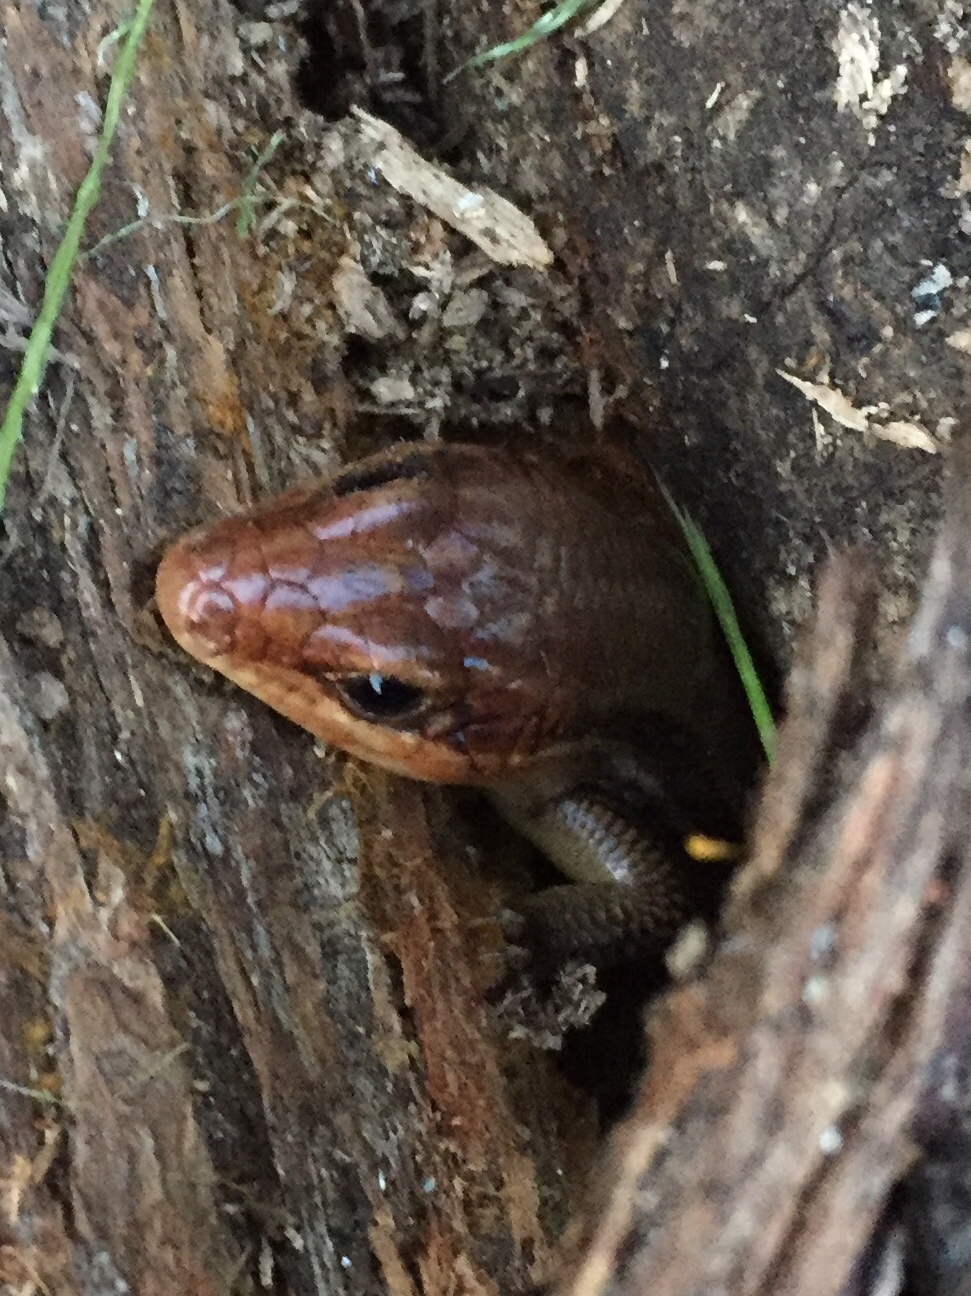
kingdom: Animalia
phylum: Chordata
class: Squamata
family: Scincidae
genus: Plestiodon
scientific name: Plestiodon laticeps
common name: Broadhead skink
